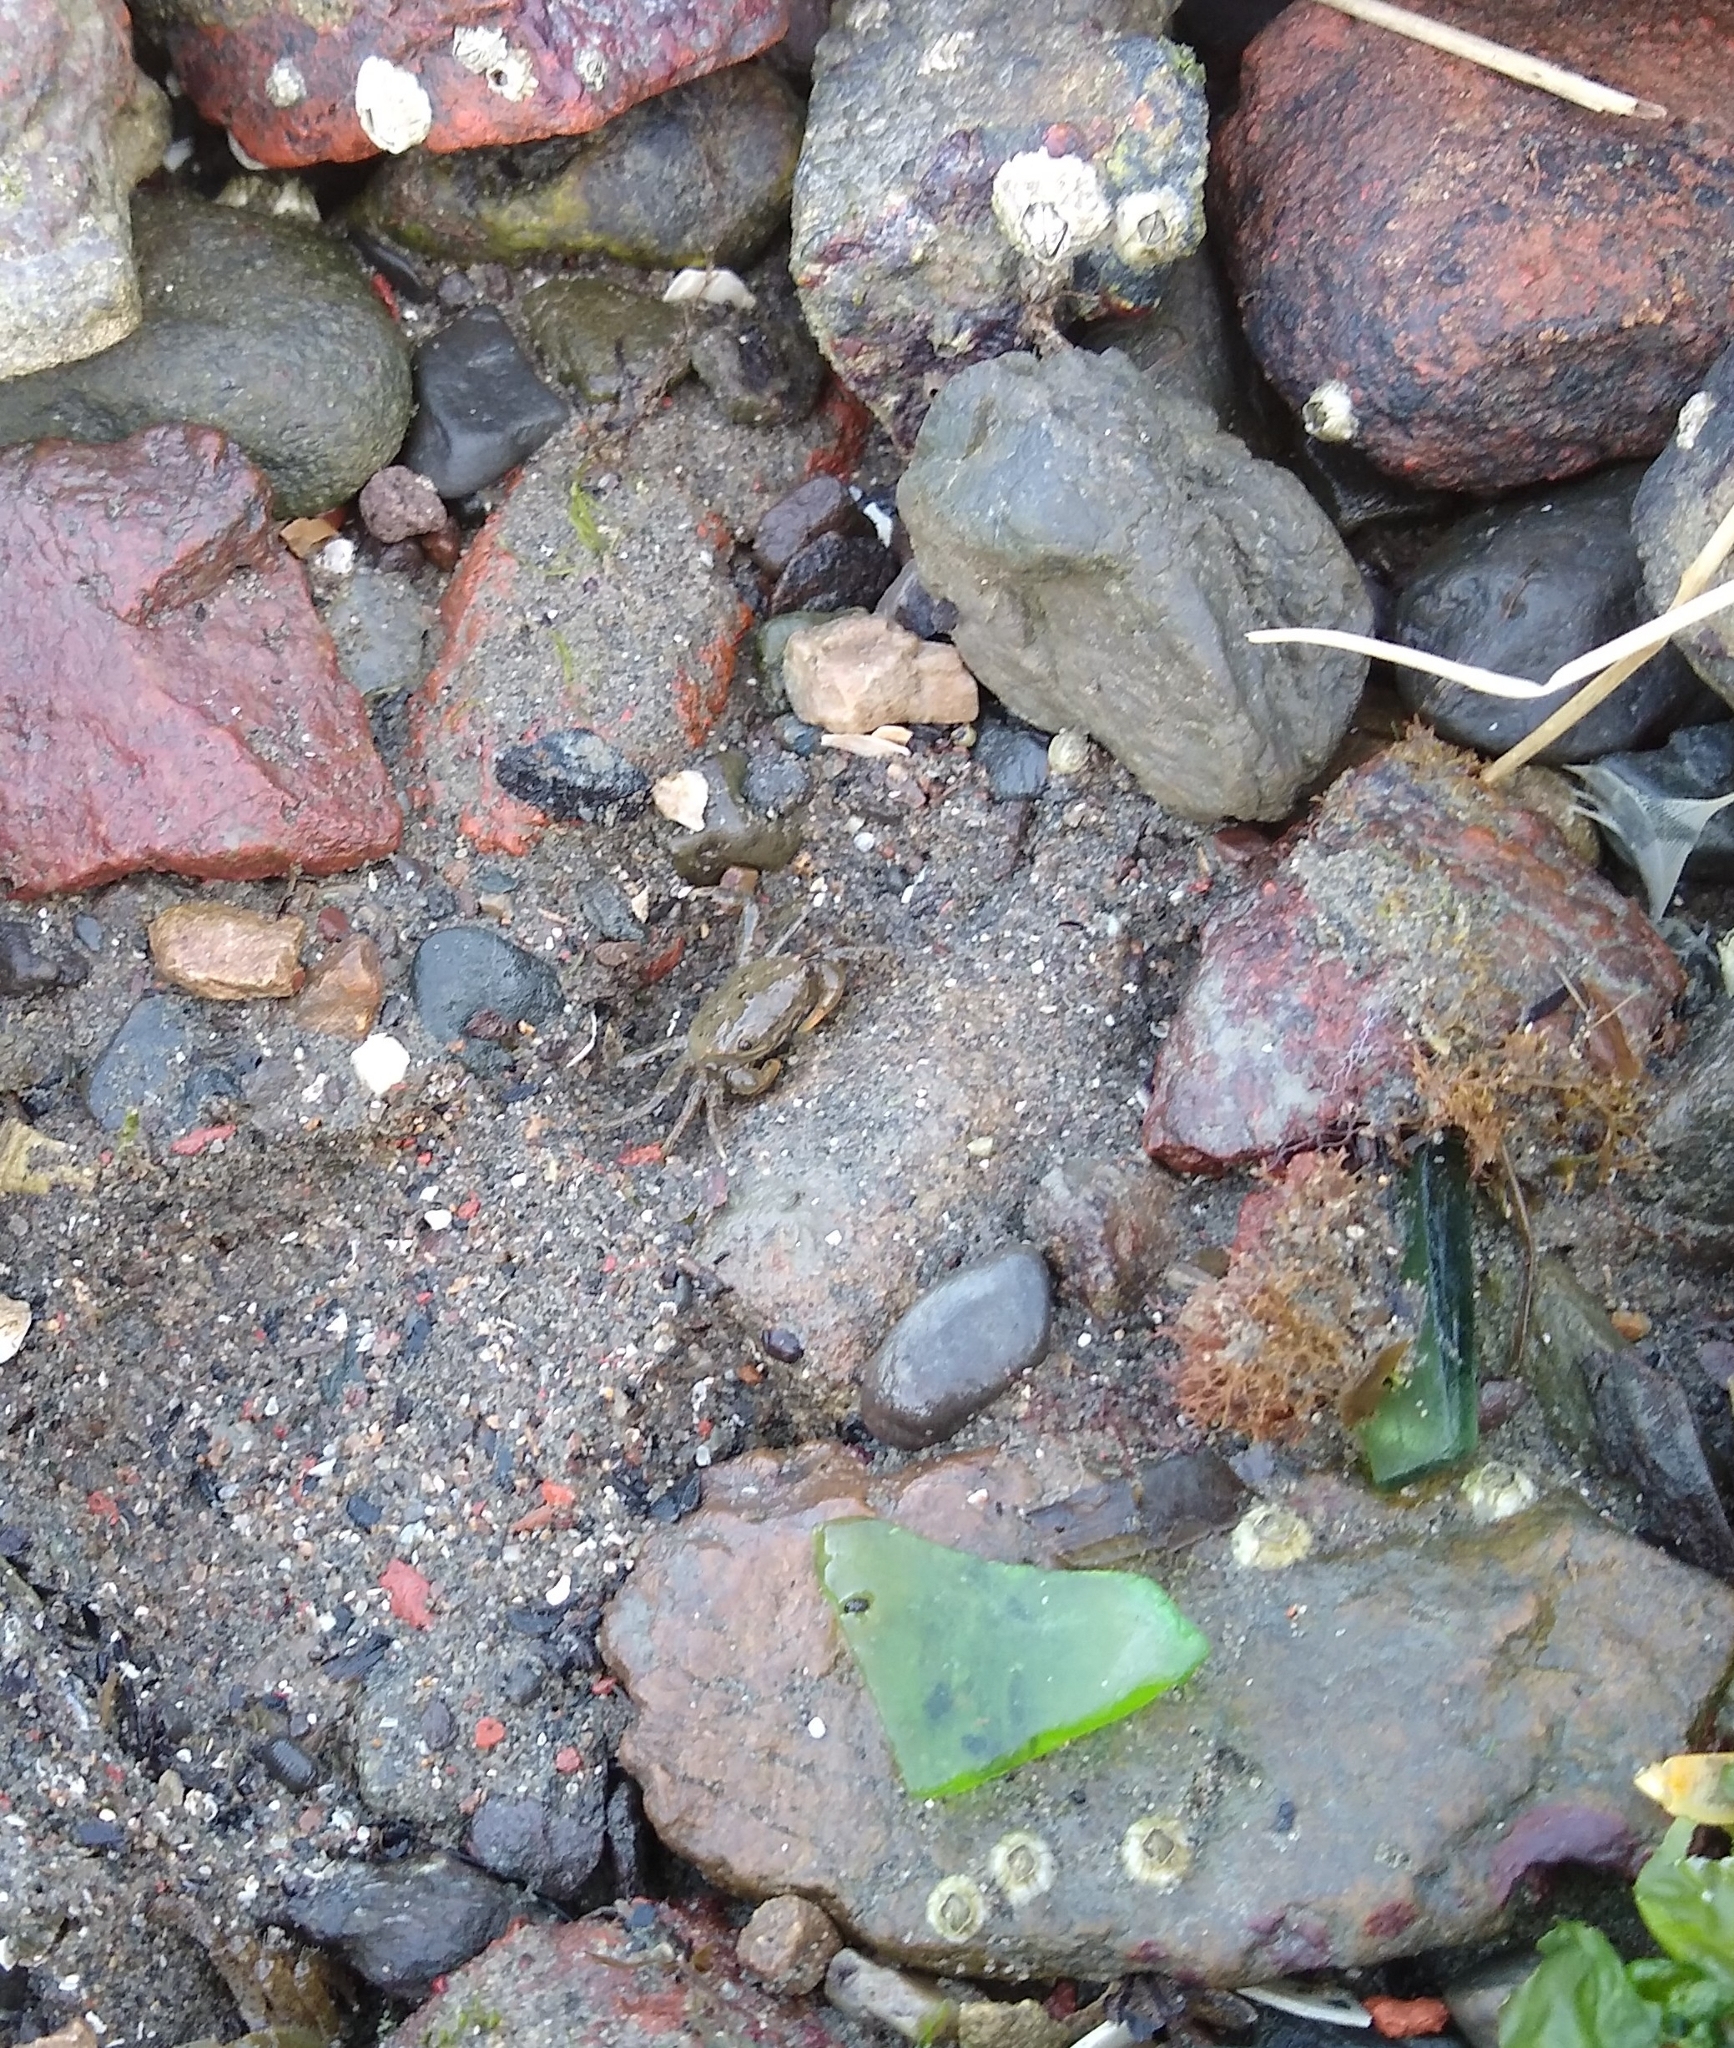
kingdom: Animalia
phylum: Arthropoda
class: Malacostraca
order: Decapoda
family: Varunidae
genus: Hemigrapsus
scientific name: Hemigrapsus oregonensis
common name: Yellow shore crab
